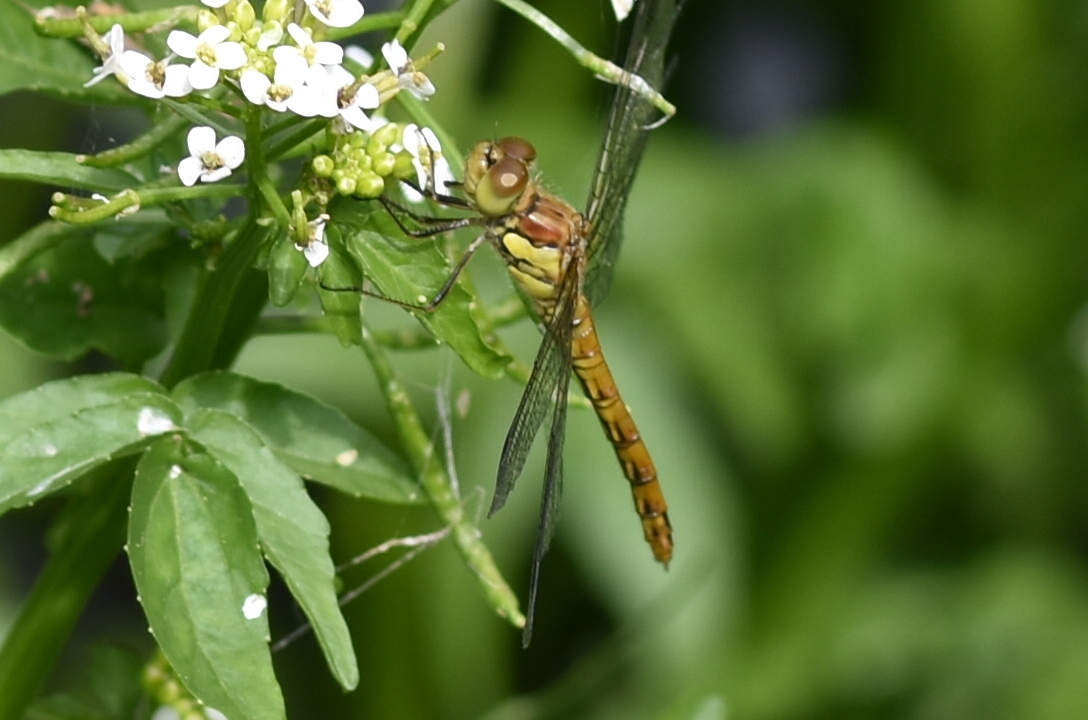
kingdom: Animalia
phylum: Arthropoda
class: Insecta
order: Odonata
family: Libellulidae
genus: Sympetrum
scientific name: Sympetrum striolatum
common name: Common darter
